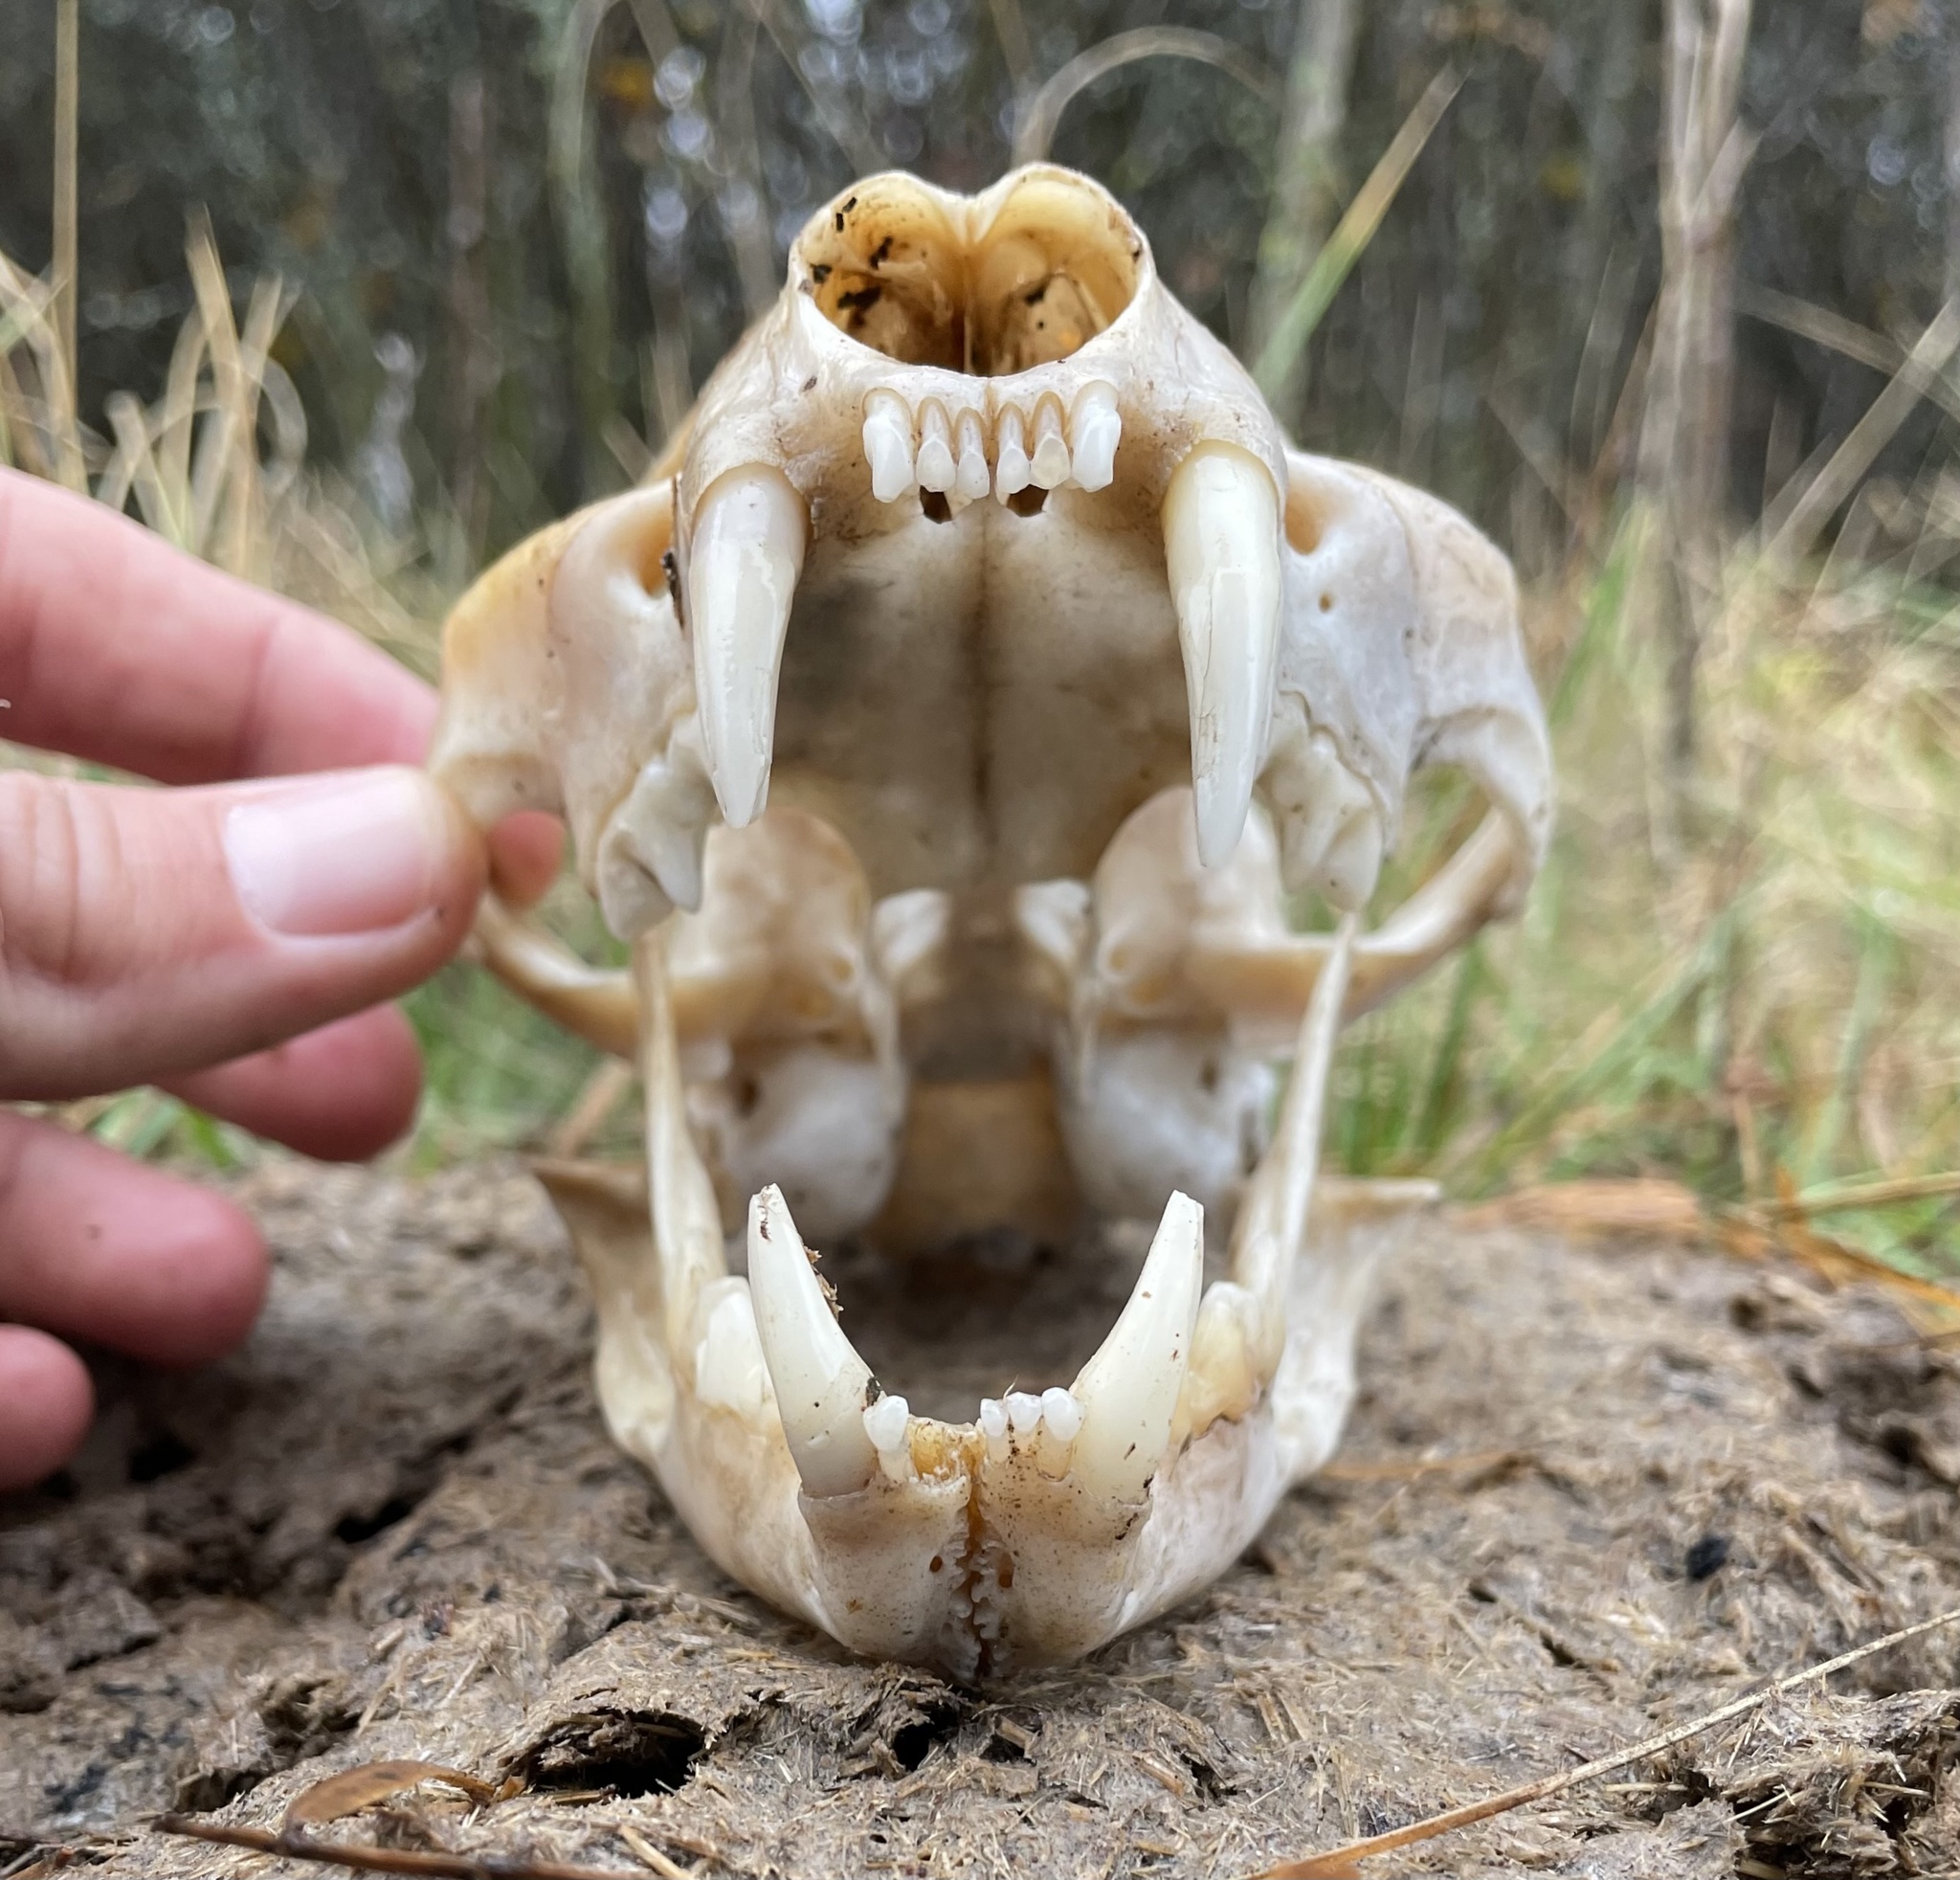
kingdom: Animalia
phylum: Chordata
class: Mammalia
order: Carnivora
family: Felidae
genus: Lynx
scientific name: Lynx rufus
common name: Bobcat
